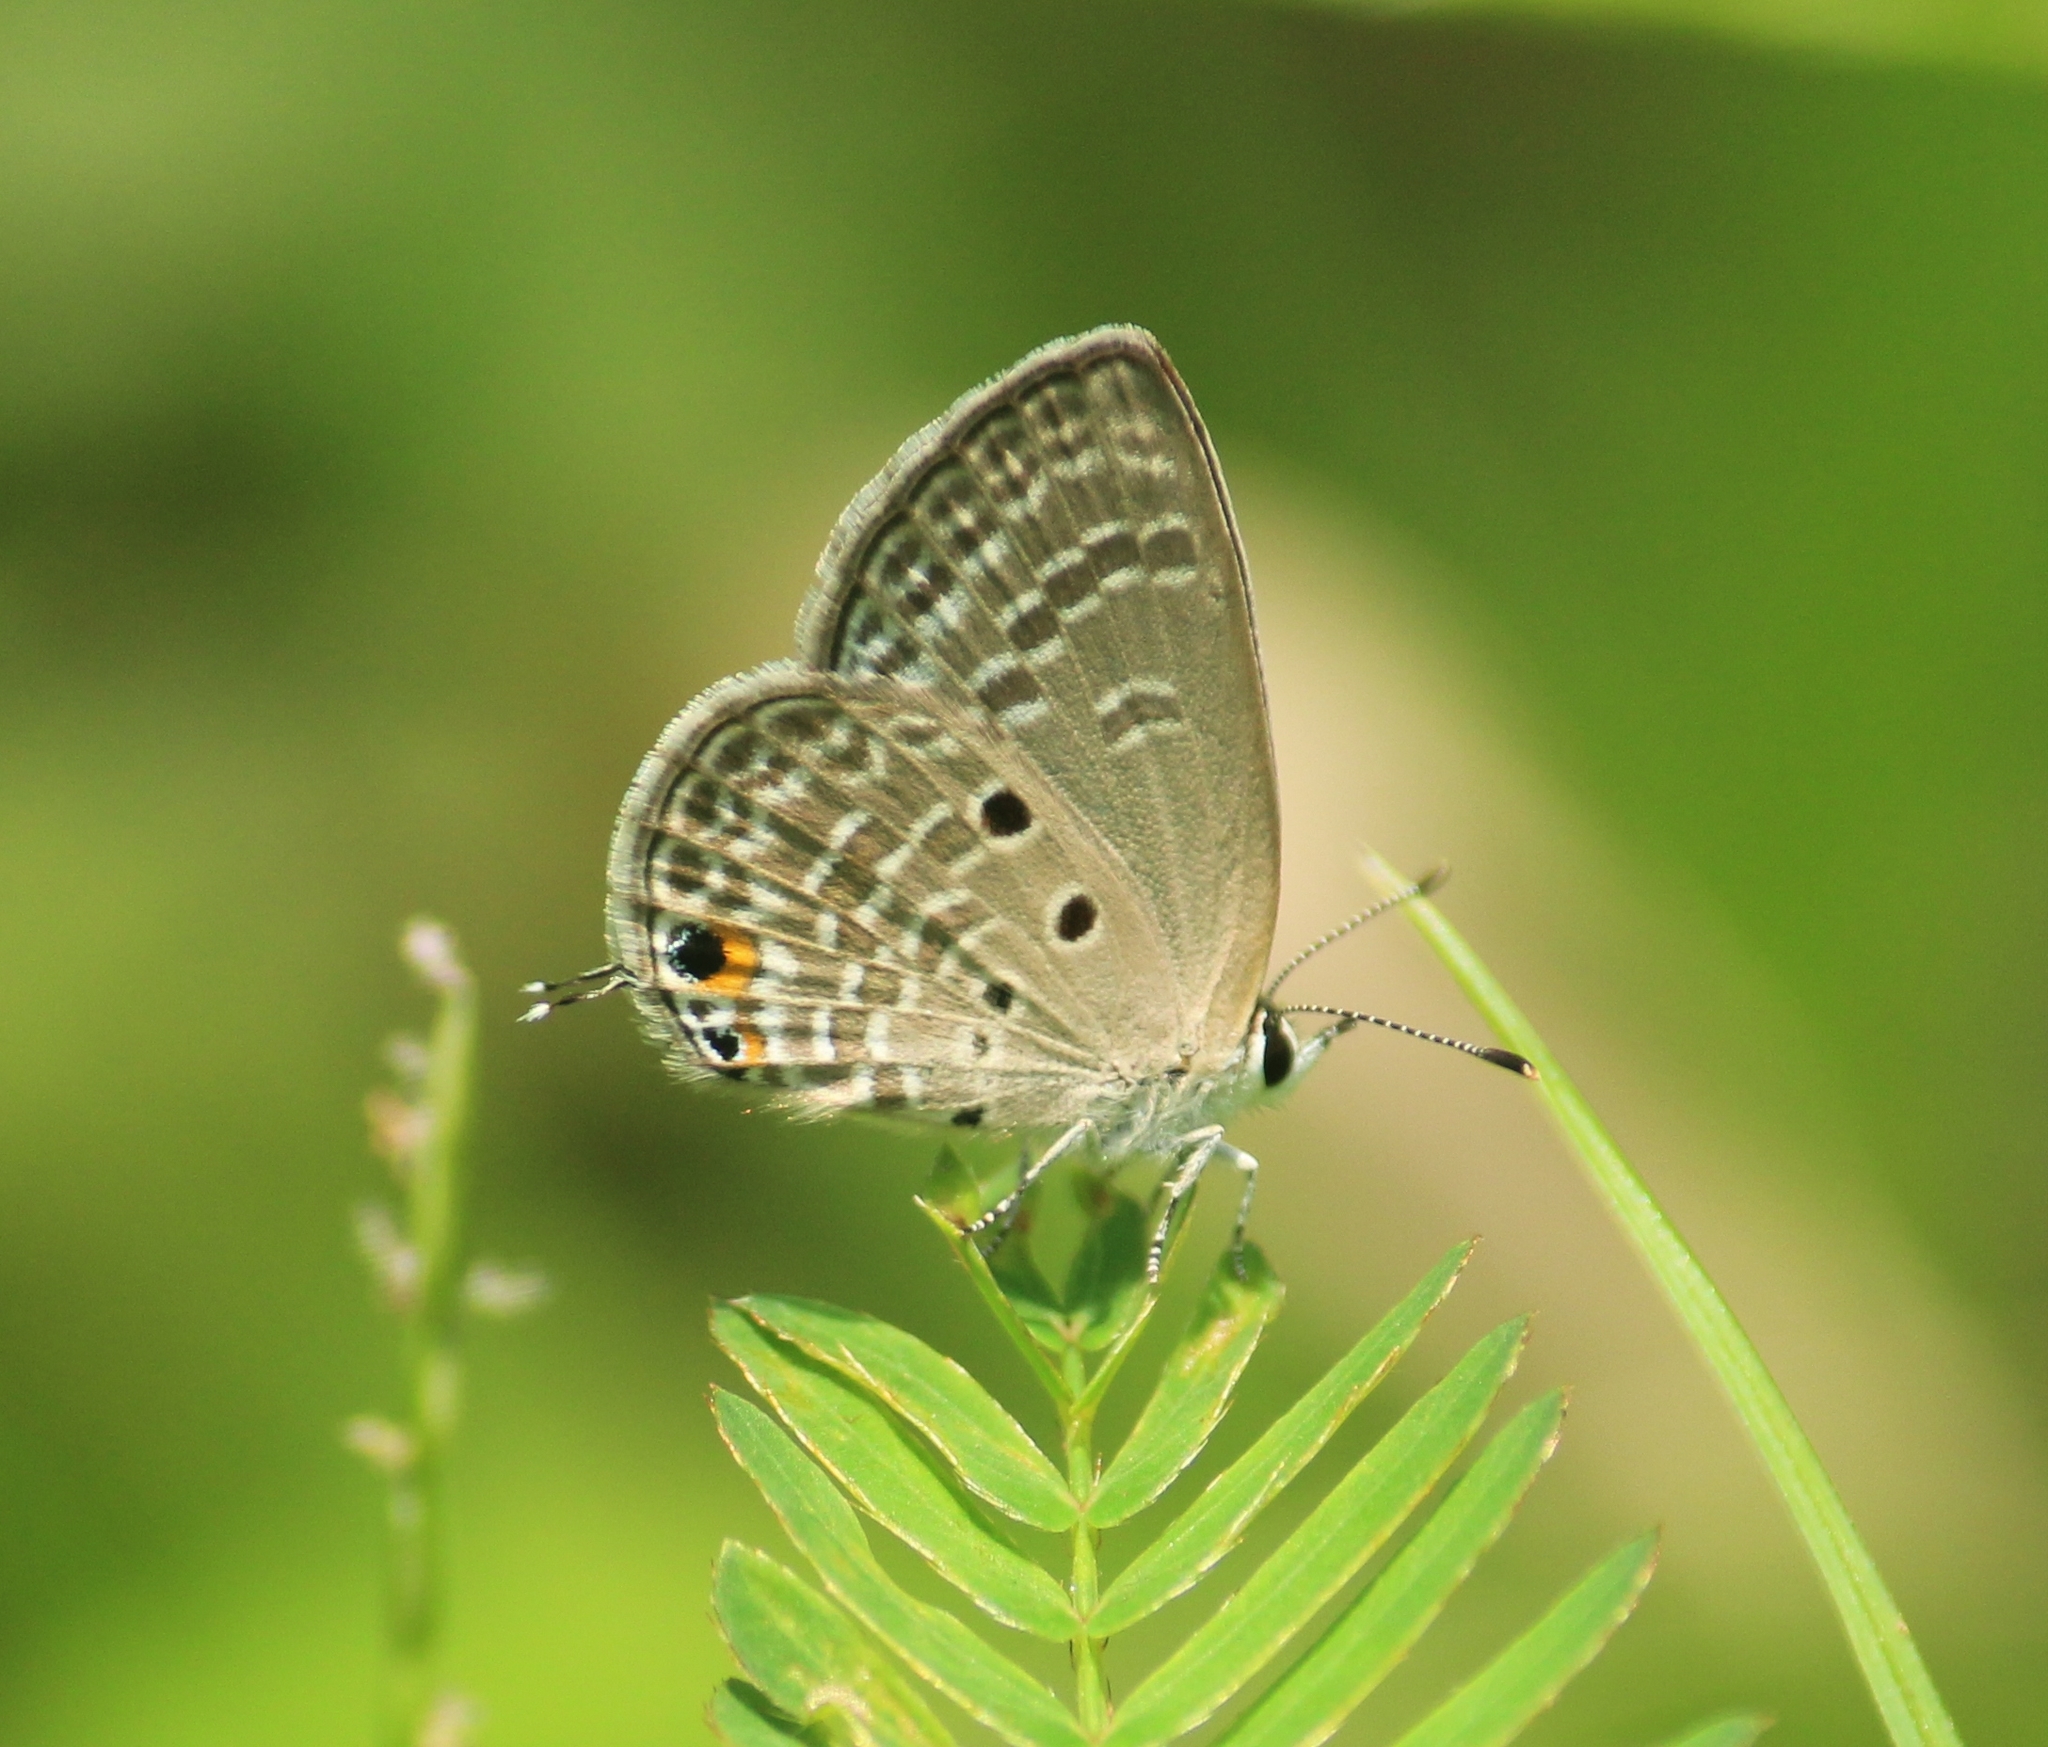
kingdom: Animalia
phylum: Arthropoda
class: Insecta
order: Lepidoptera
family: Lycaenidae
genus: Luthrodes
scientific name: Luthrodes pandava
